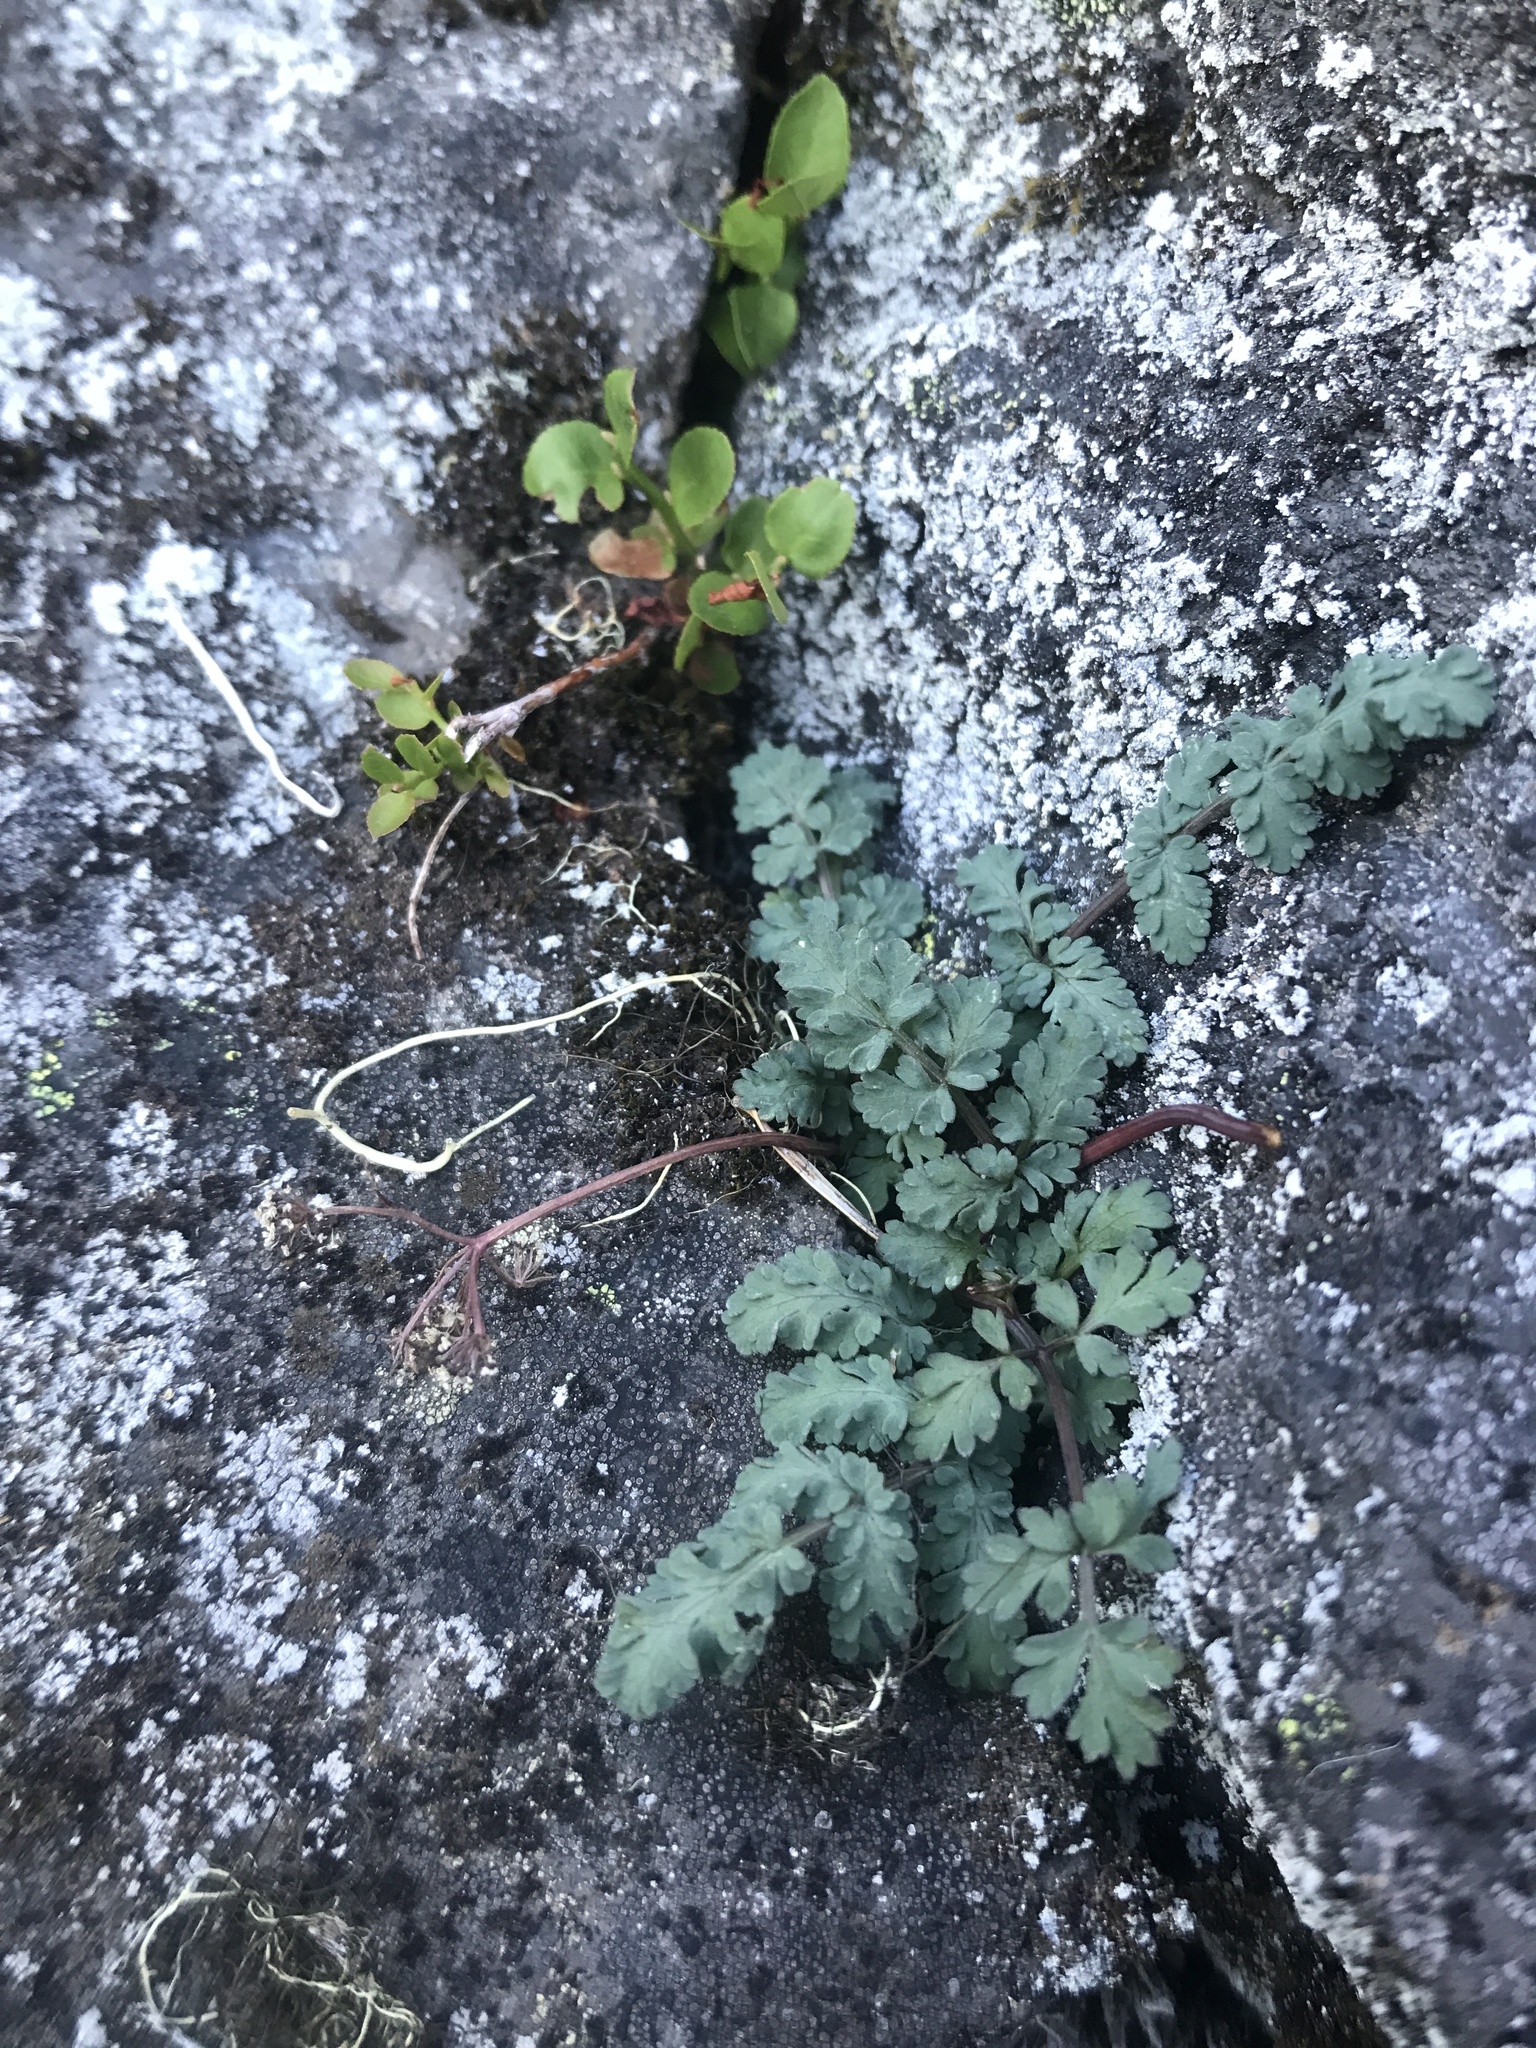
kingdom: Plantae
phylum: Tracheophyta
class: Magnoliopsida
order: Apiales
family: Apiaceae
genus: Lomatium
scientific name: Lomatium martindalei
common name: Cascade desert-parsley
